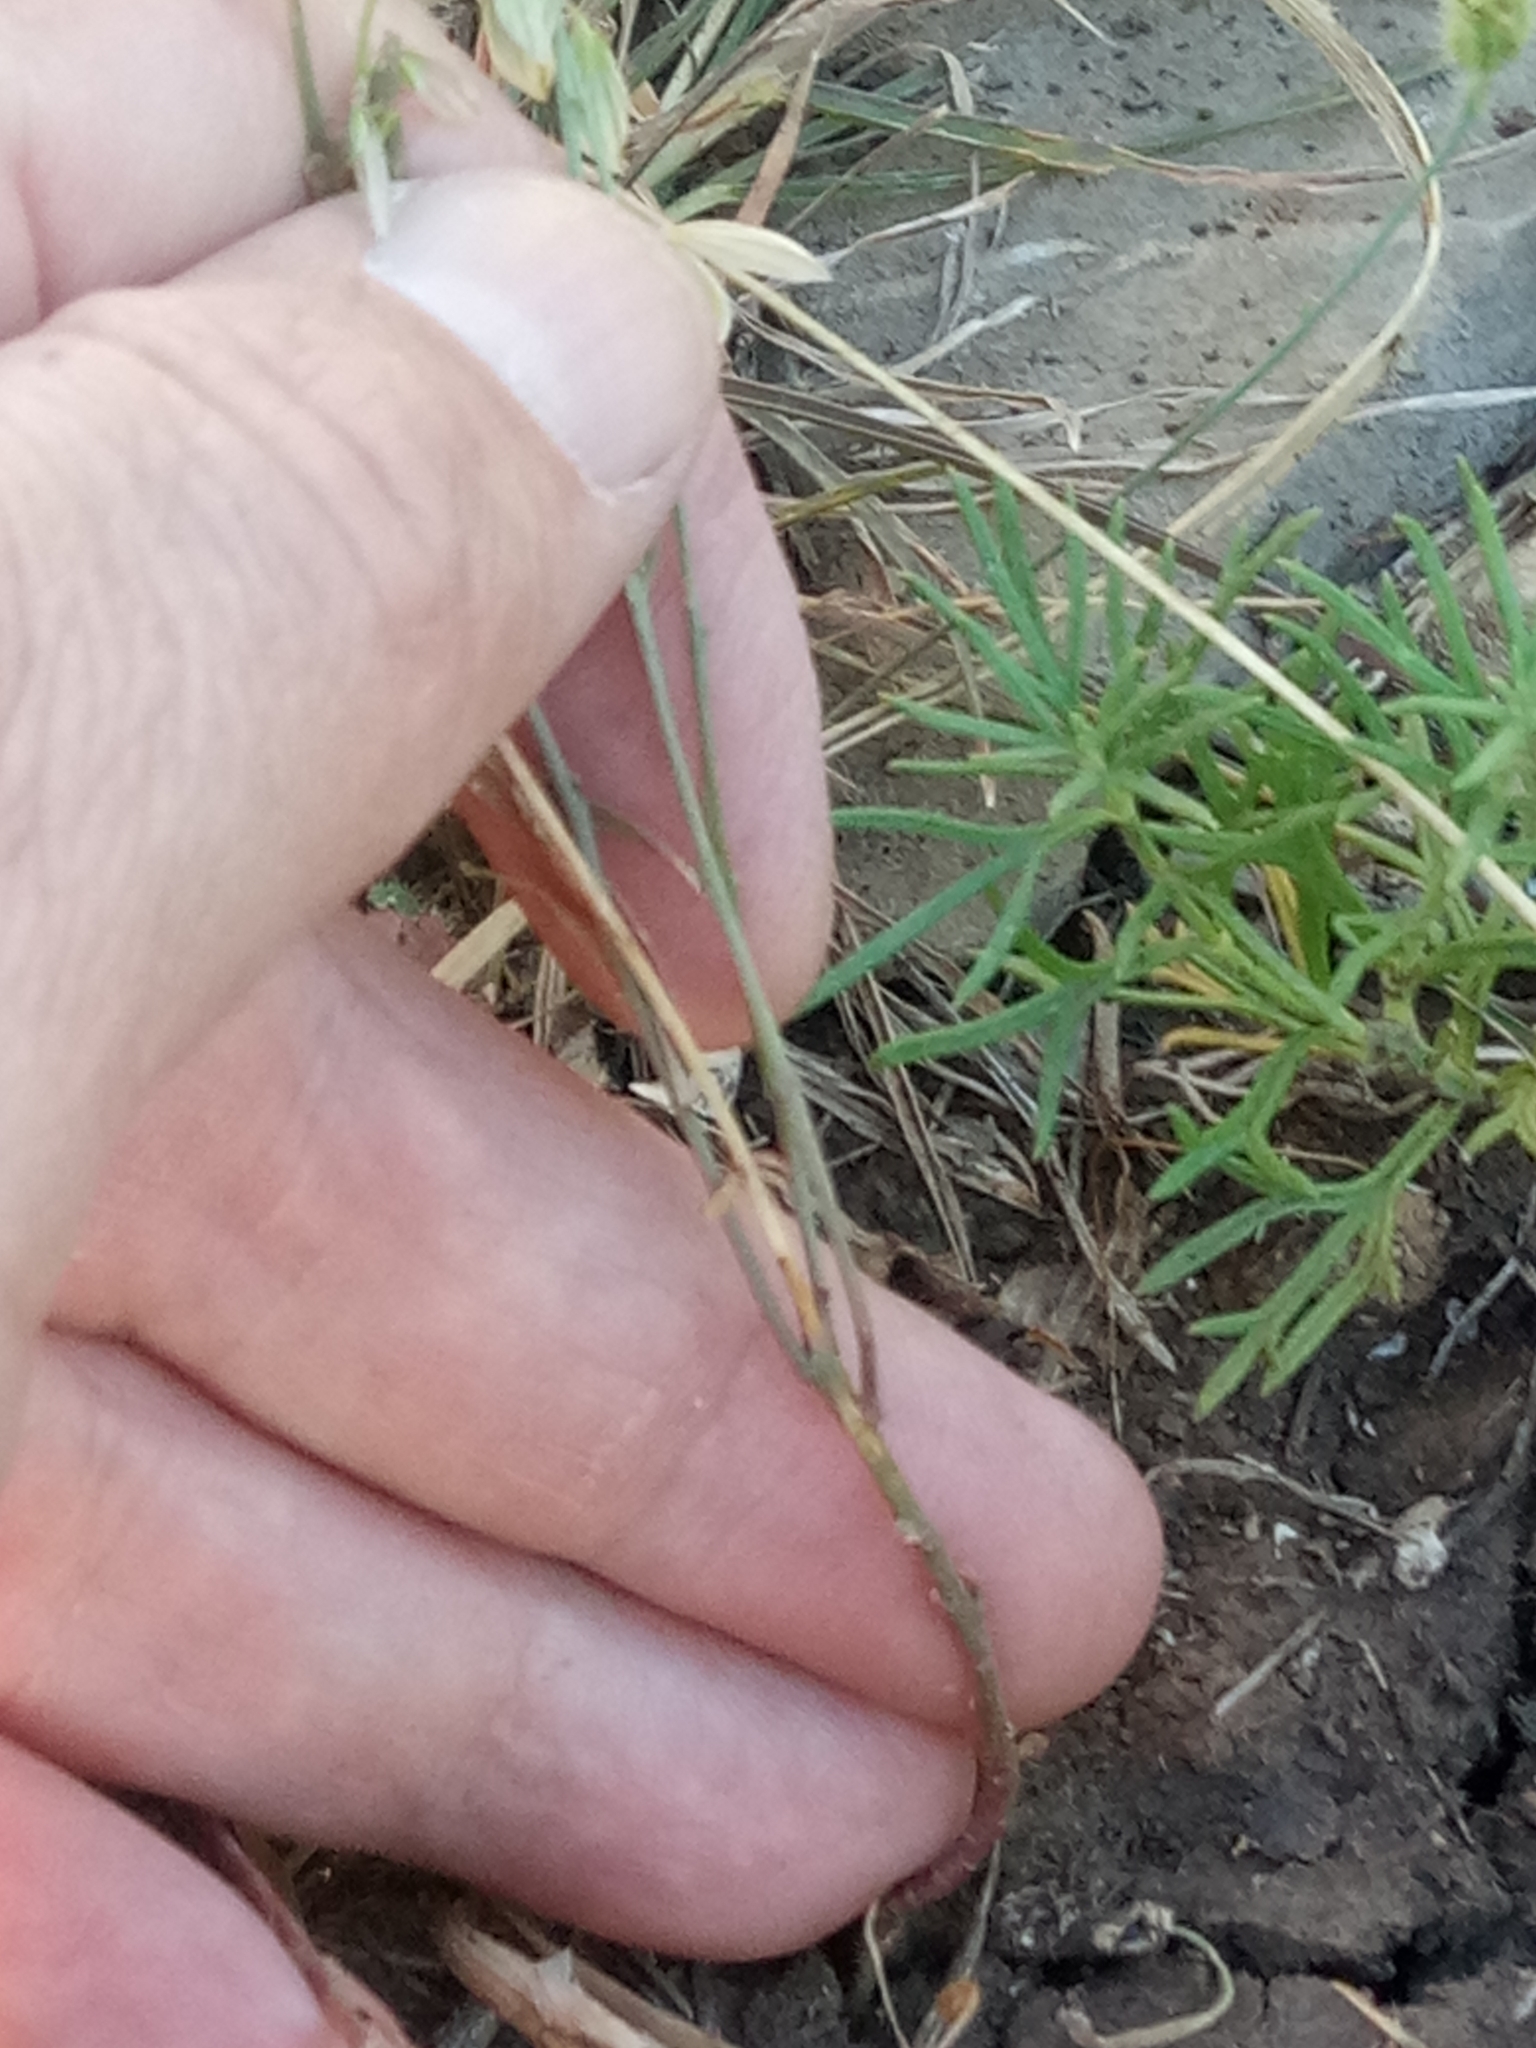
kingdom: Plantae
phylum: Tracheophyta
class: Magnoliopsida
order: Fabales
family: Polygalaceae
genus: Polygala
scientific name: Polygala monspeliaca
